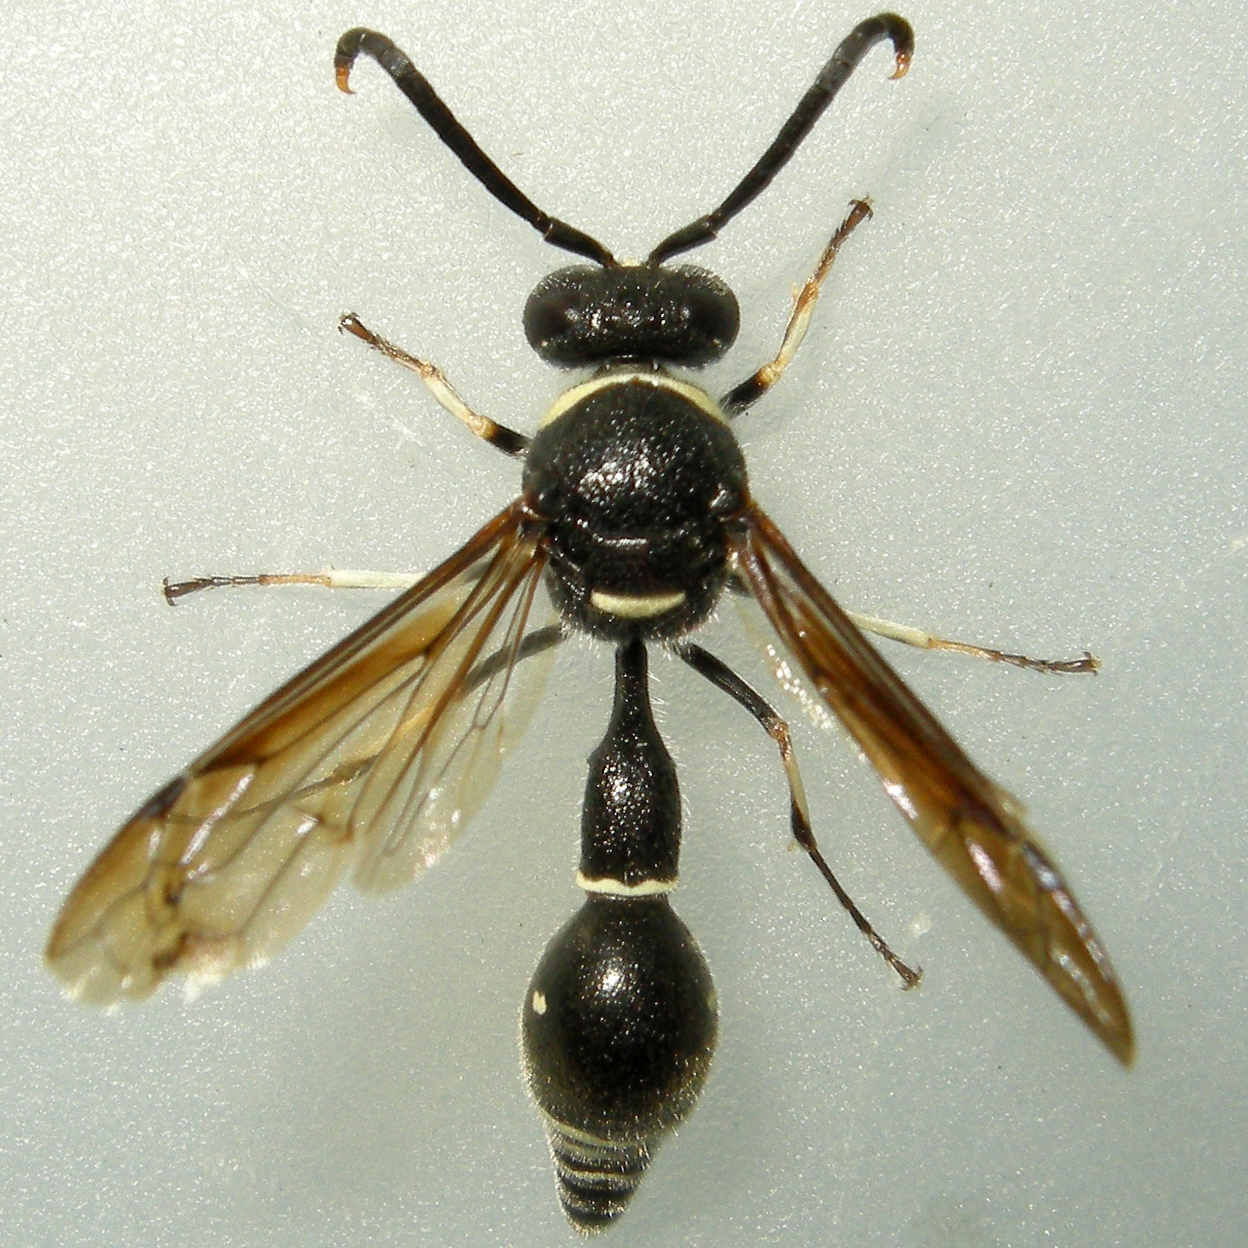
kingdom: Animalia
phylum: Arthropoda
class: Insecta
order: Hymenoptera
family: Vespidae
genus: Eumenes
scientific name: Eumenes fraternus
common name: Fraternal potter wasp
